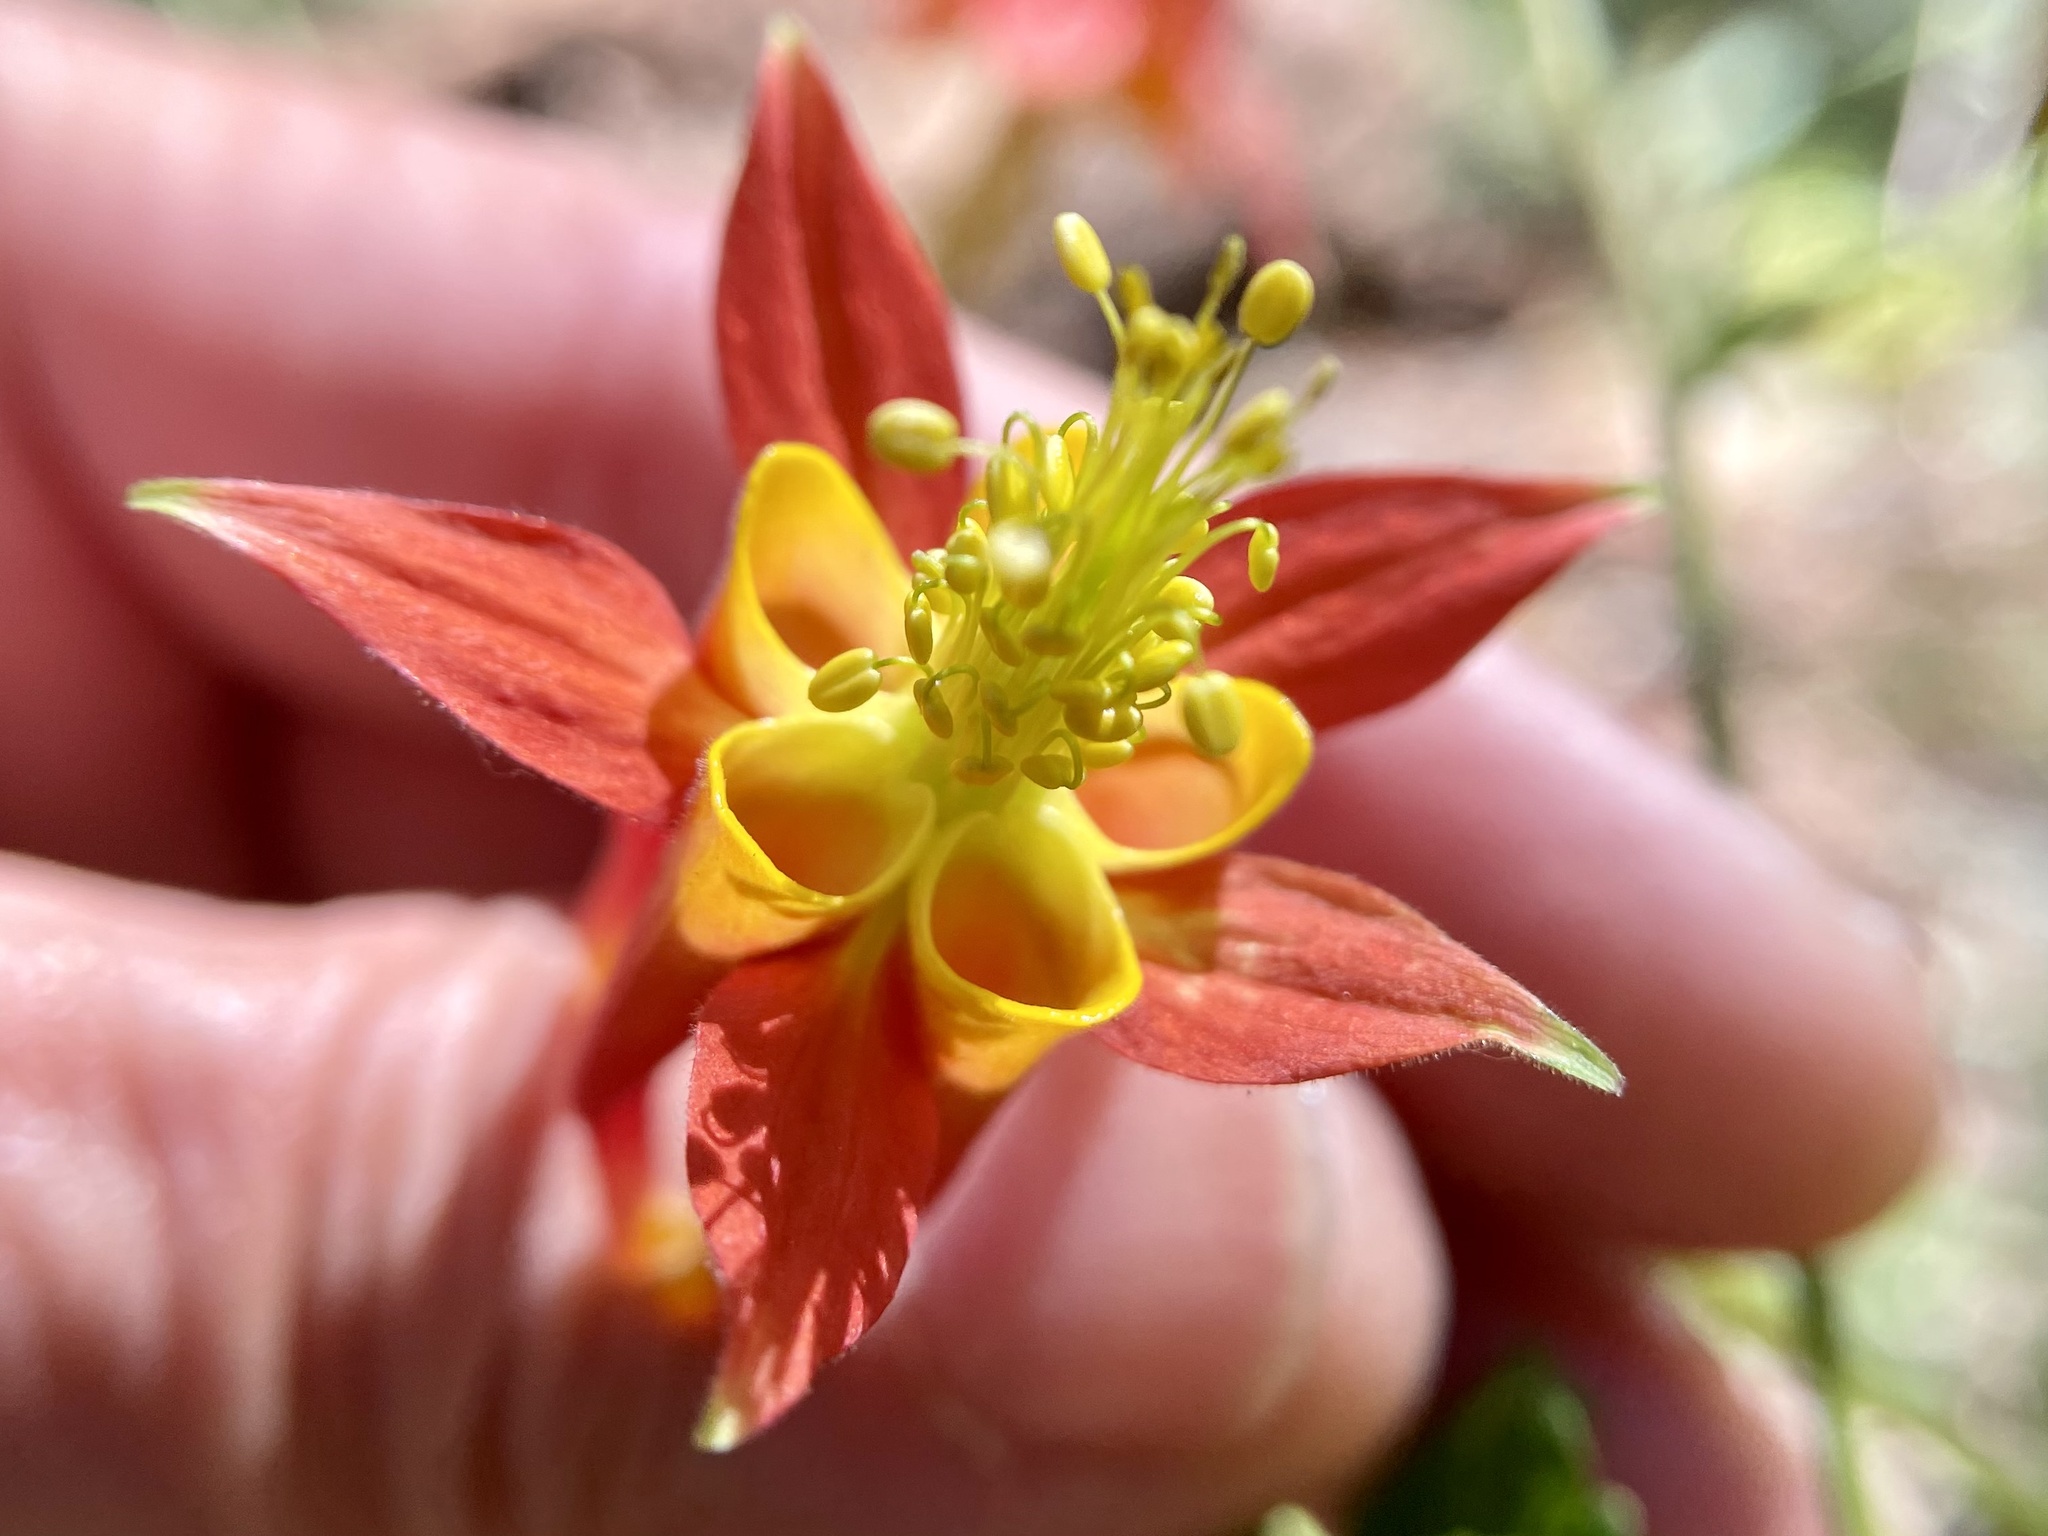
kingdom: Plantae
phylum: Tracheophyta
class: Magnoliopsida
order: Ranunculales
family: Ranunculaceae
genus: Aquilegia
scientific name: Aquilegia formosa
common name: Sitka columbine
